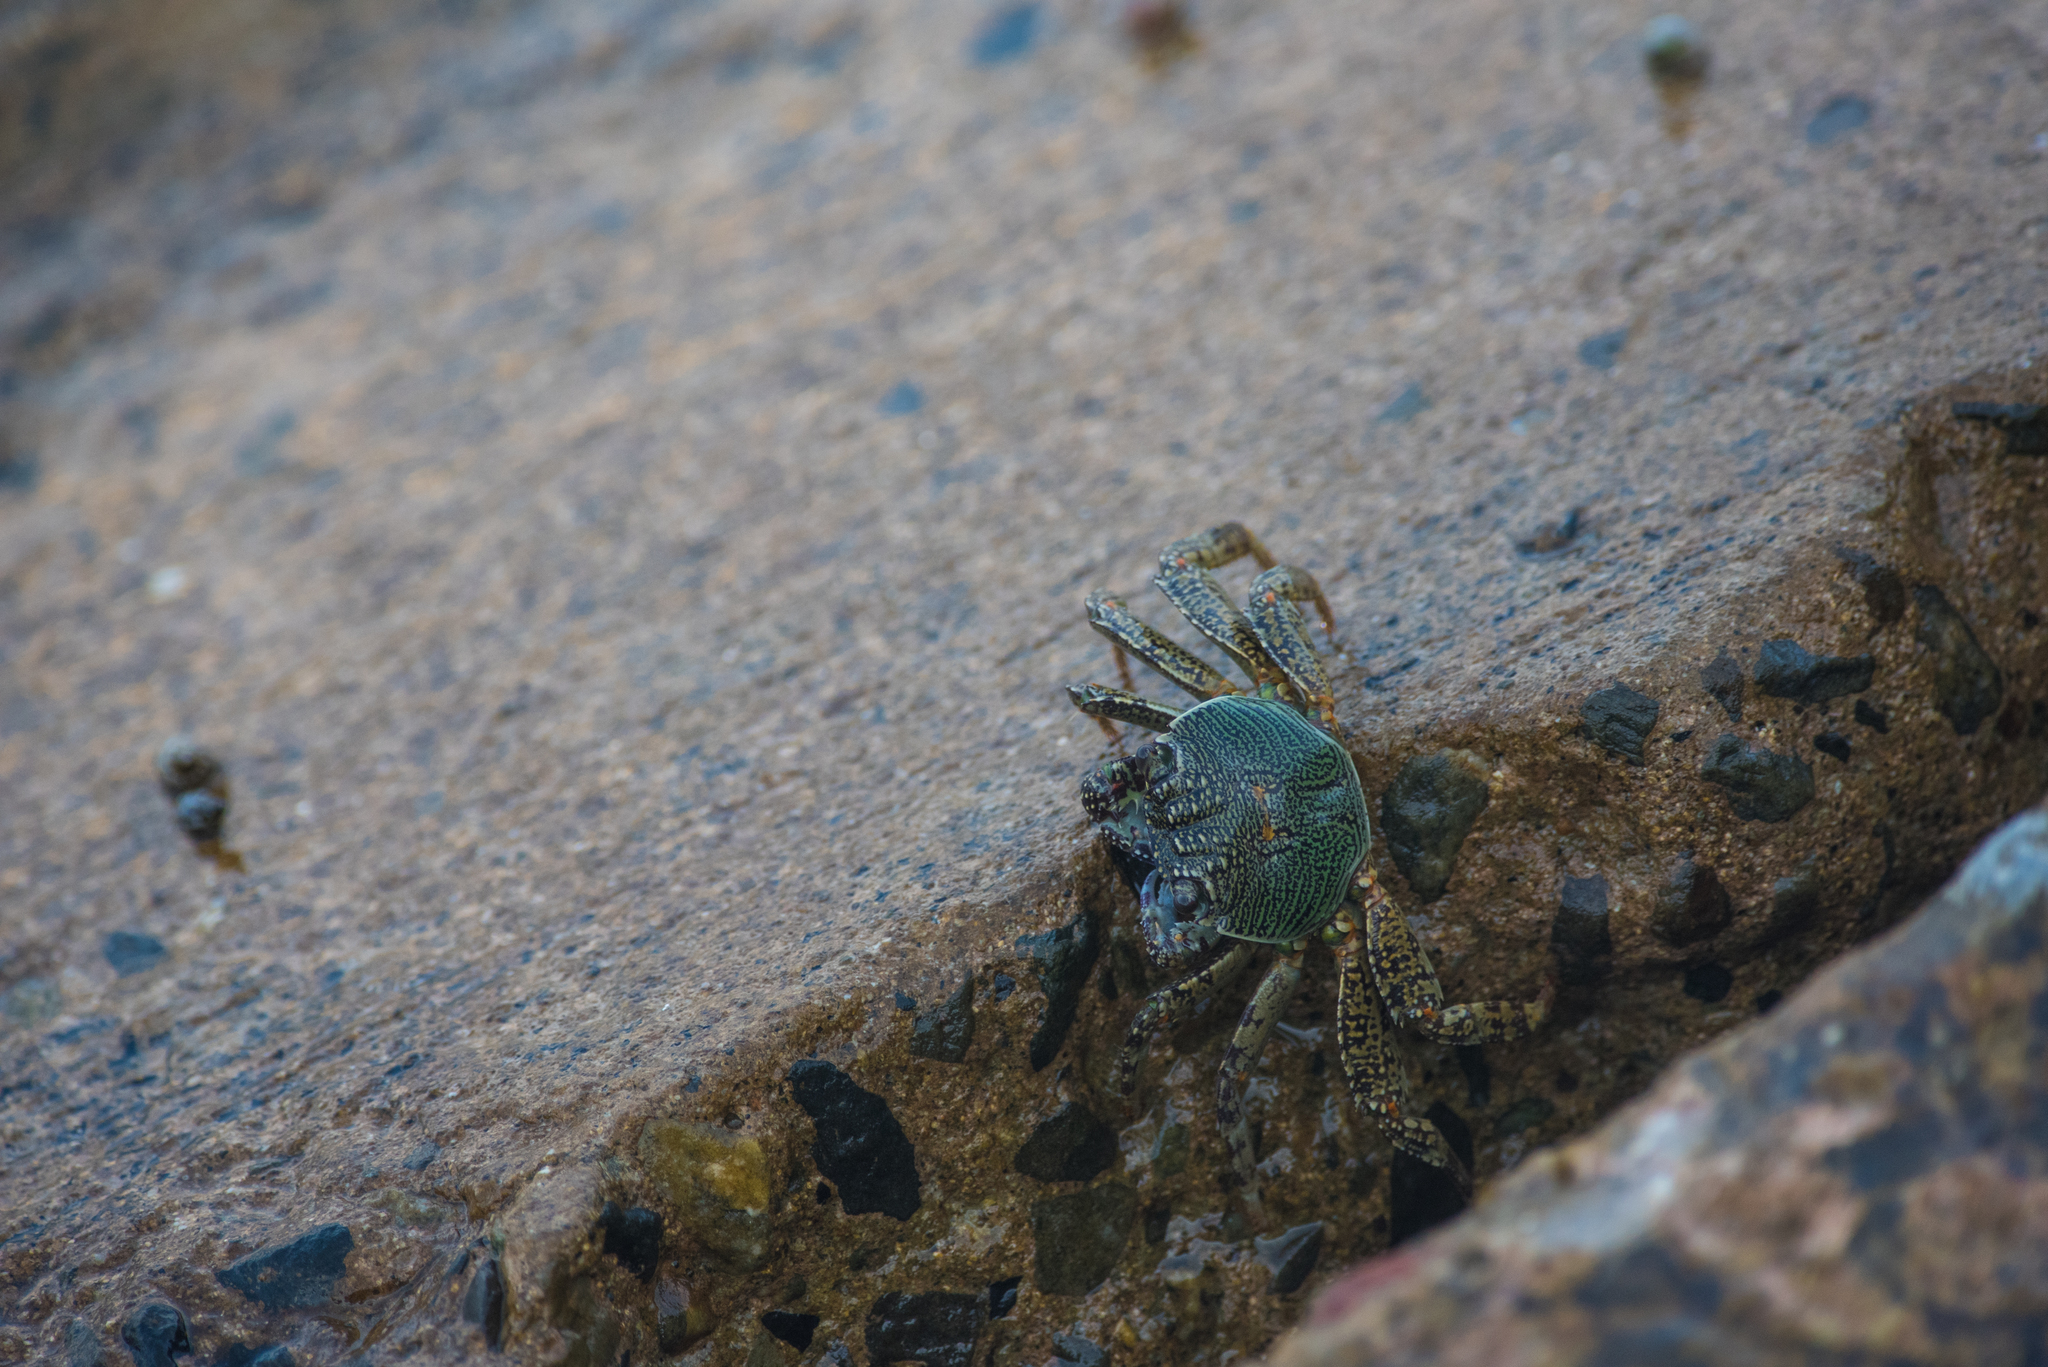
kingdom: Animalia
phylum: Arthropoda
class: Malacostraca
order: Decapoda
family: Grapsidae
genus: Grapsus
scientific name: Grapsus albolineatus
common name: Mottled lightfoot crab
